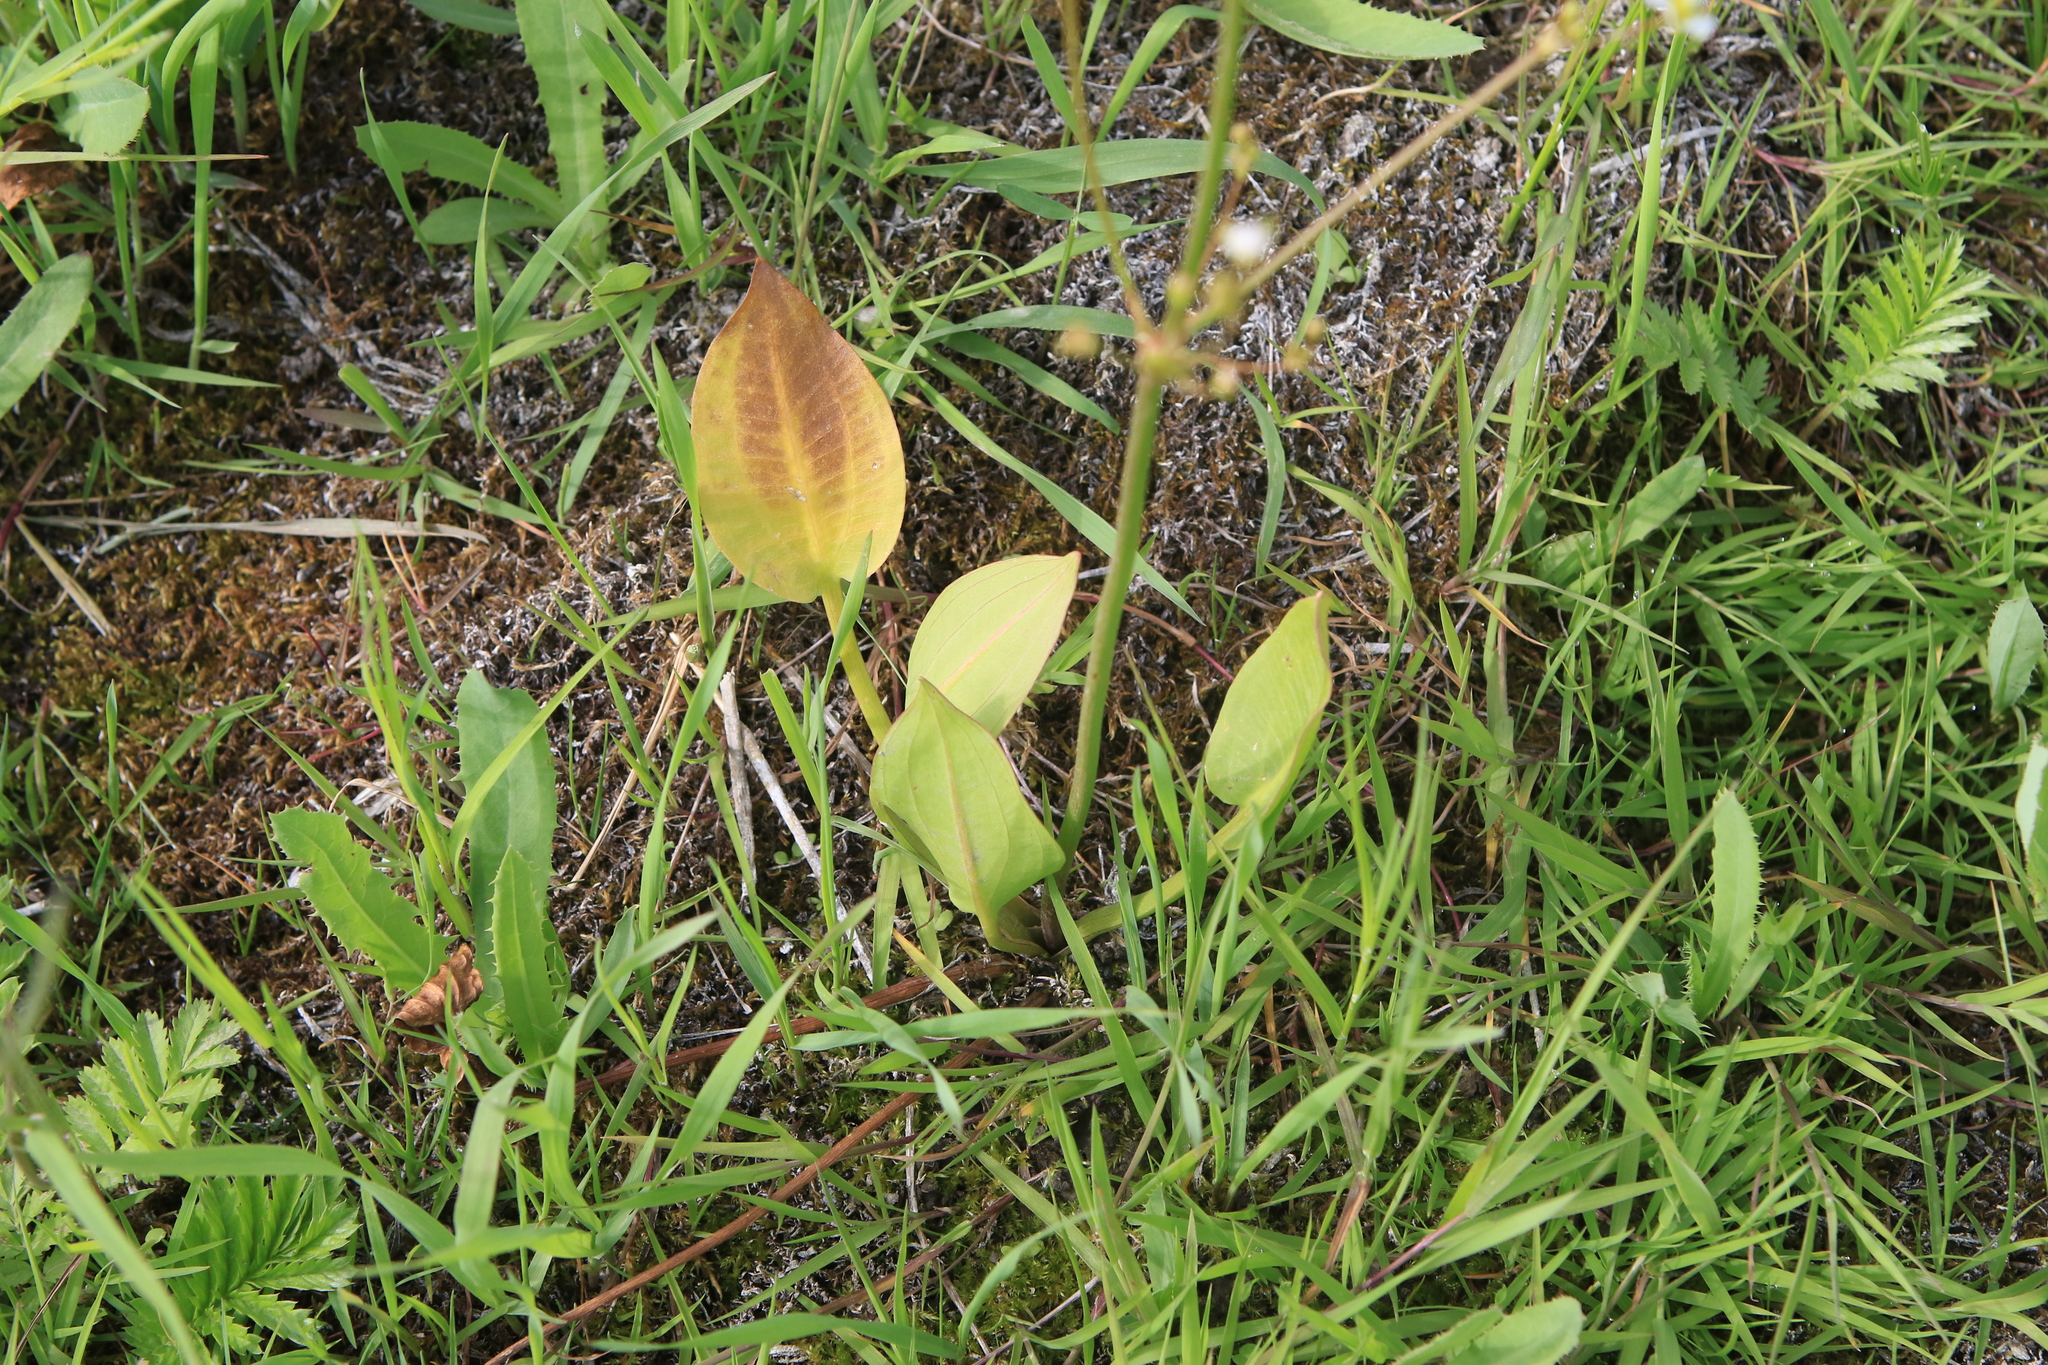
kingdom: Plantae
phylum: Tracheophyta
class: Liliopsida
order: Alismatales
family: Alismataceae
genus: Alisma
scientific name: Alisma plantago-aquatica
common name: Water-plantain
